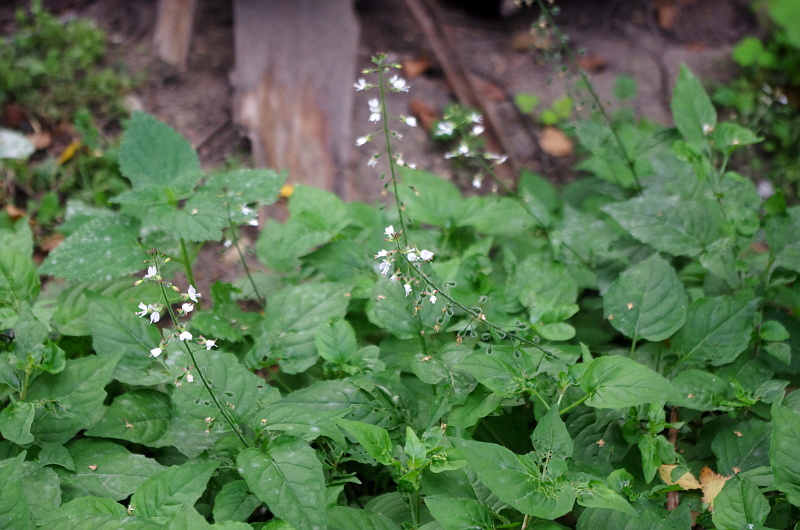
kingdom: Plantae
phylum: Tracheophyta
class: Magnoliopsida
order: Myrtales
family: Onagraceae
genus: Circaea
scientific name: Circaea lutetiana
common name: Enchanter's-nightshade
